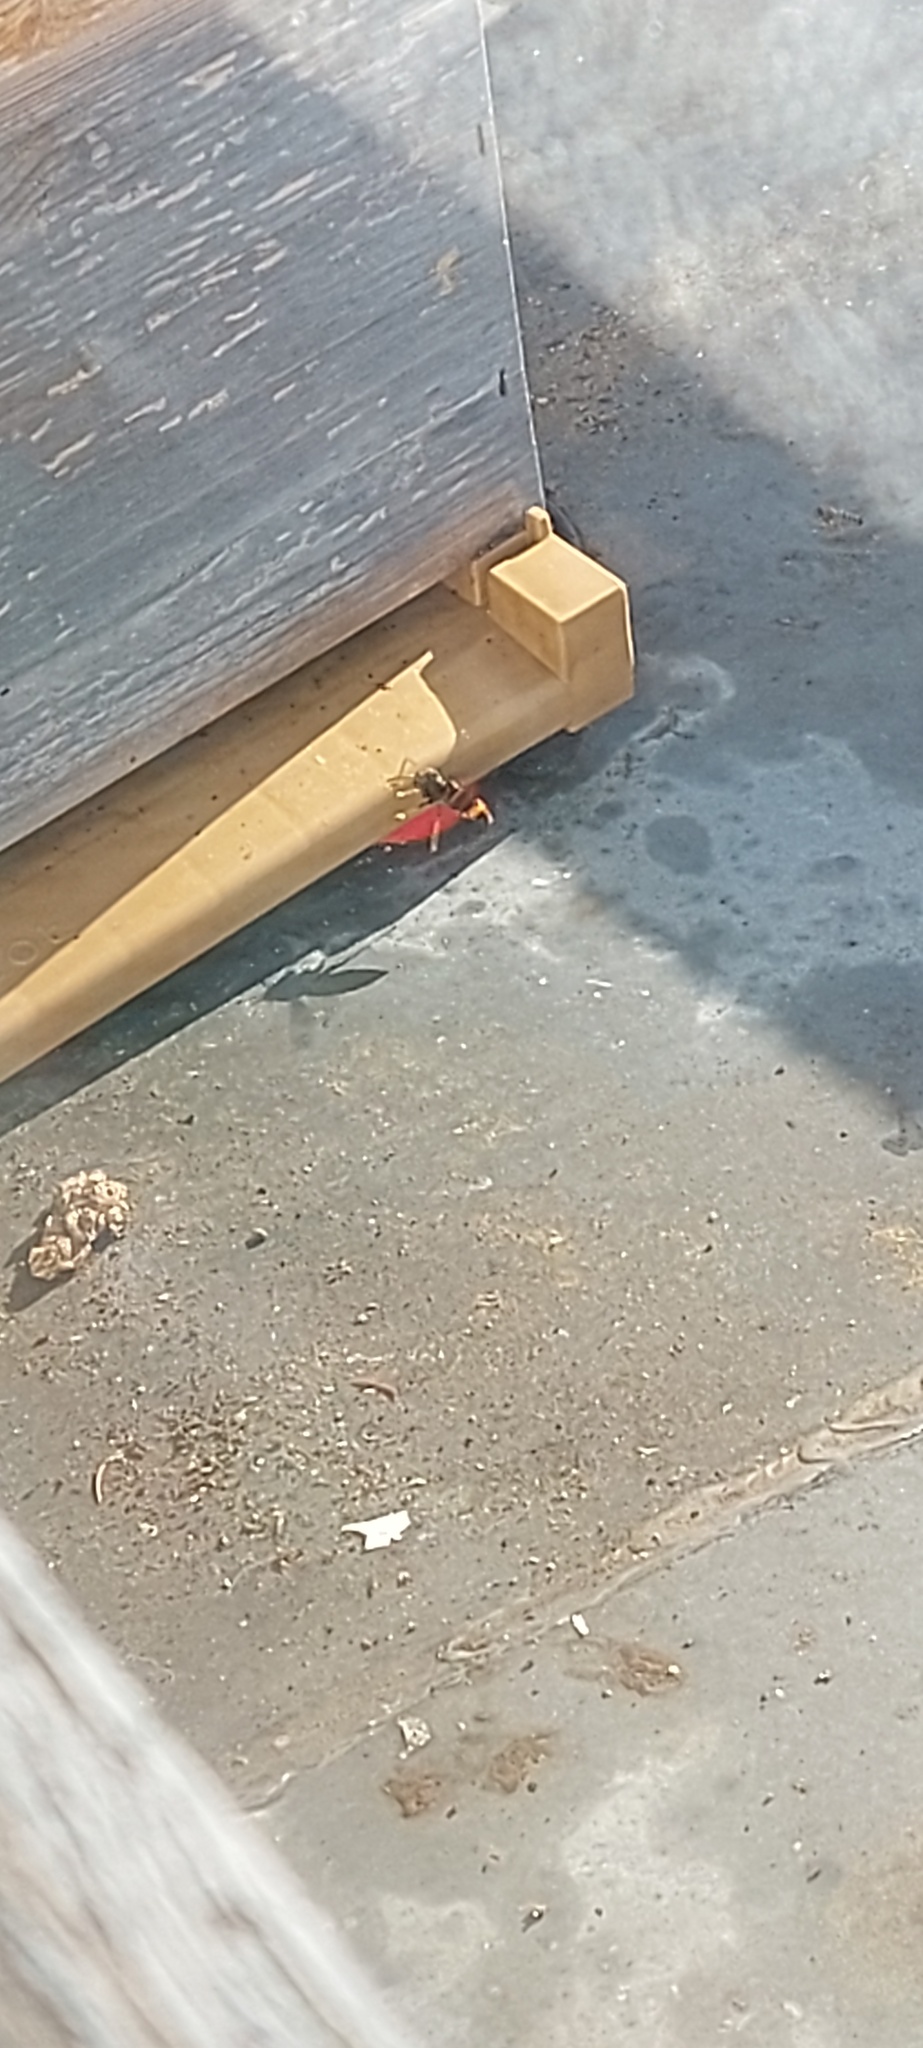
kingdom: Animalia
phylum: Arthropoda
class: Insecta
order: Hymenoptera
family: Vespidae
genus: Vespa
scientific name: Vespa velutina
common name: Asian hornet
